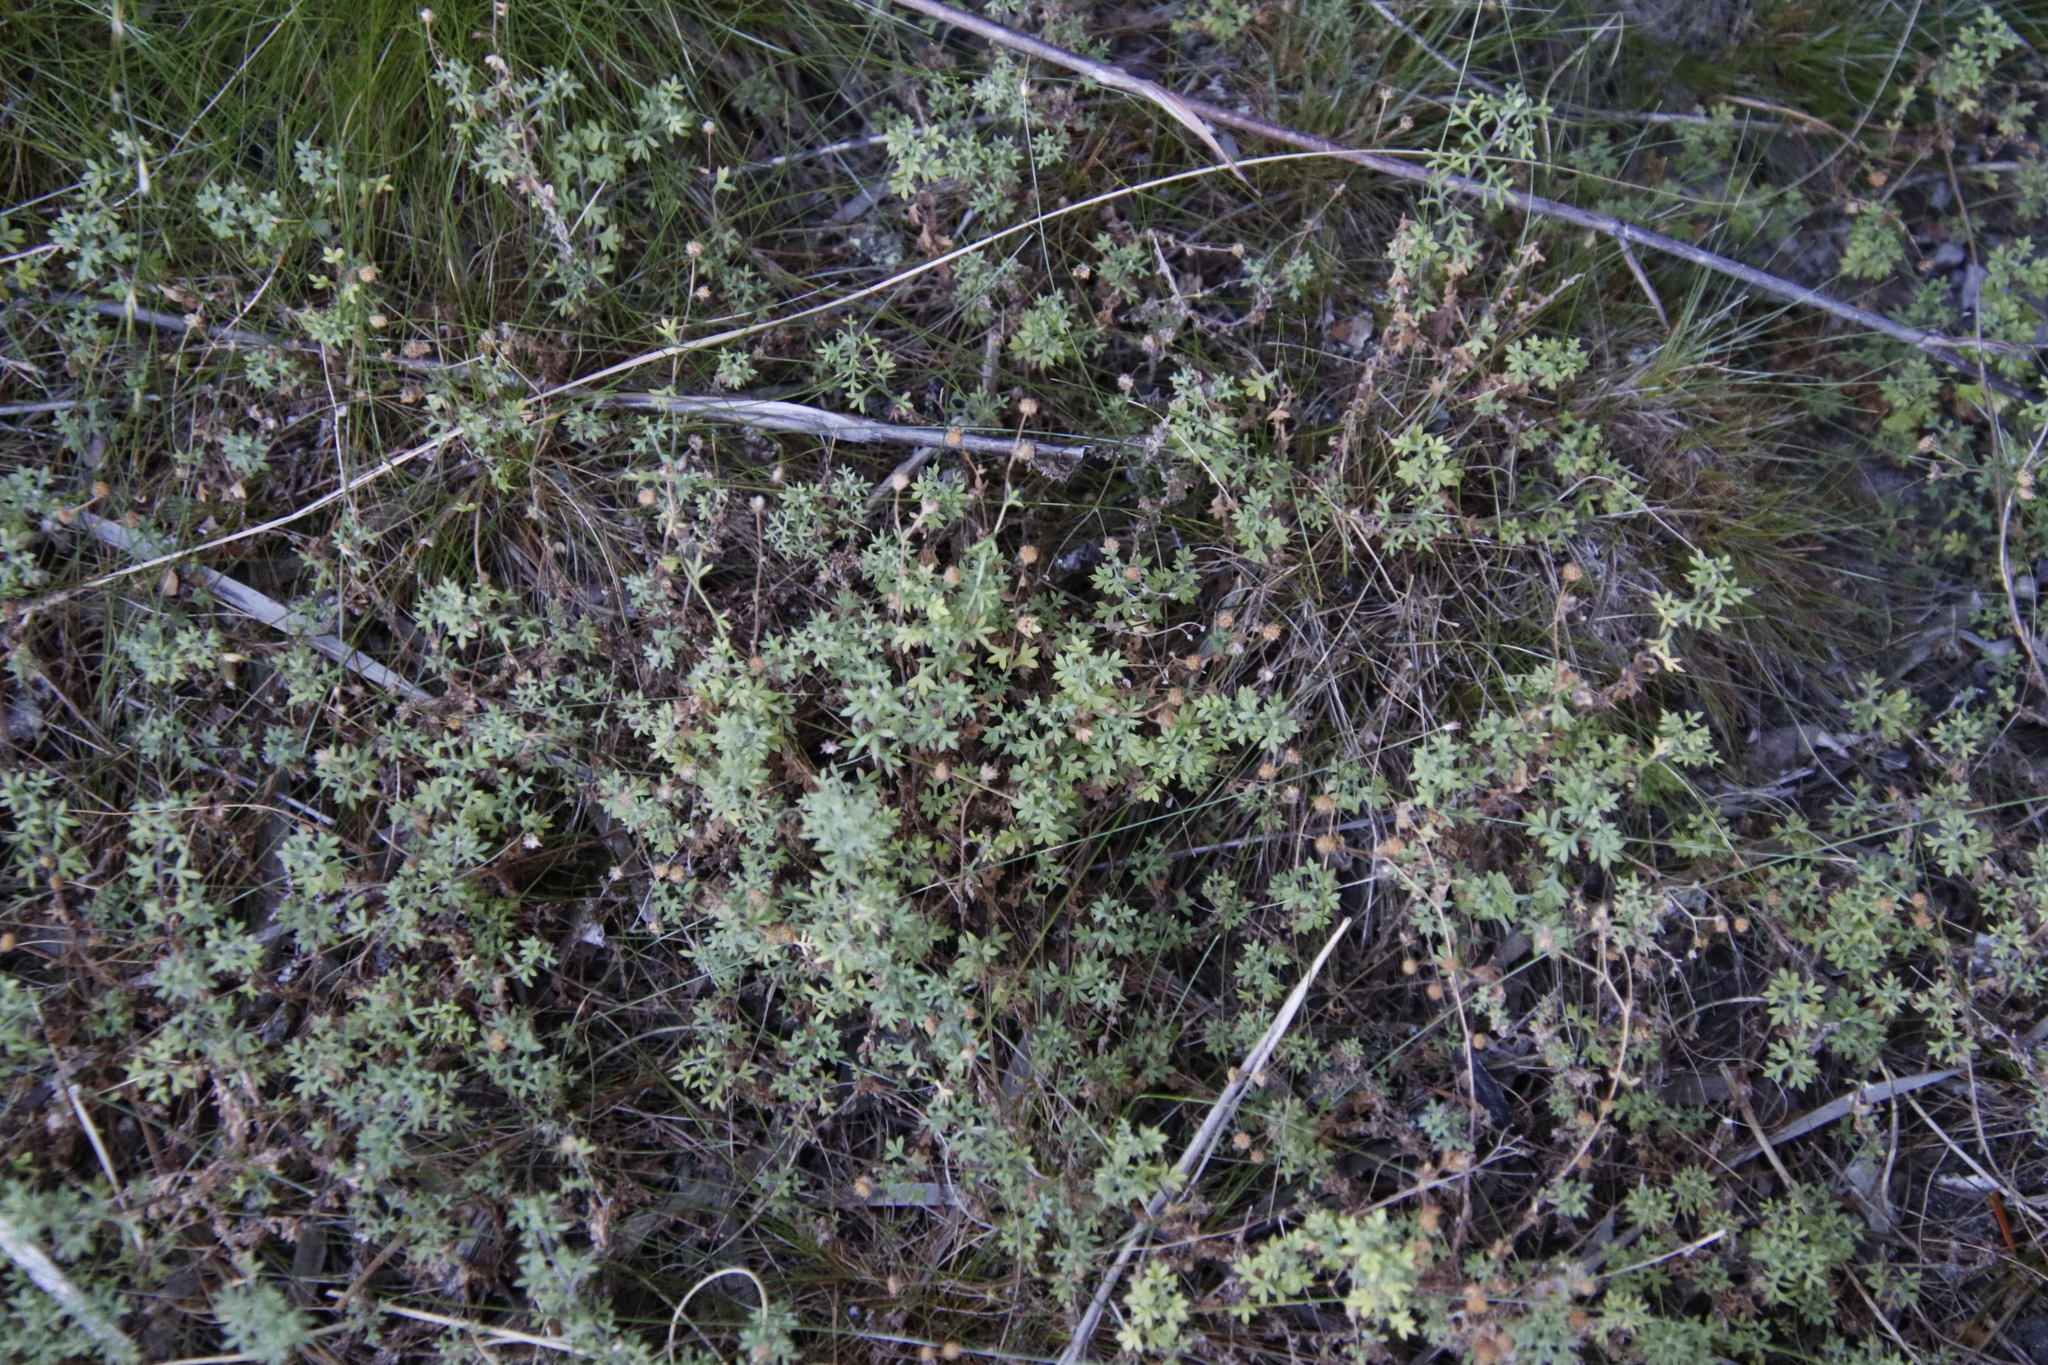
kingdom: Plantae
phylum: Tracheophyta
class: Magnoliopsida
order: Asterales
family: Asteraceae
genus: Lidbeckia
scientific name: Lidbeckia quinqueloba
